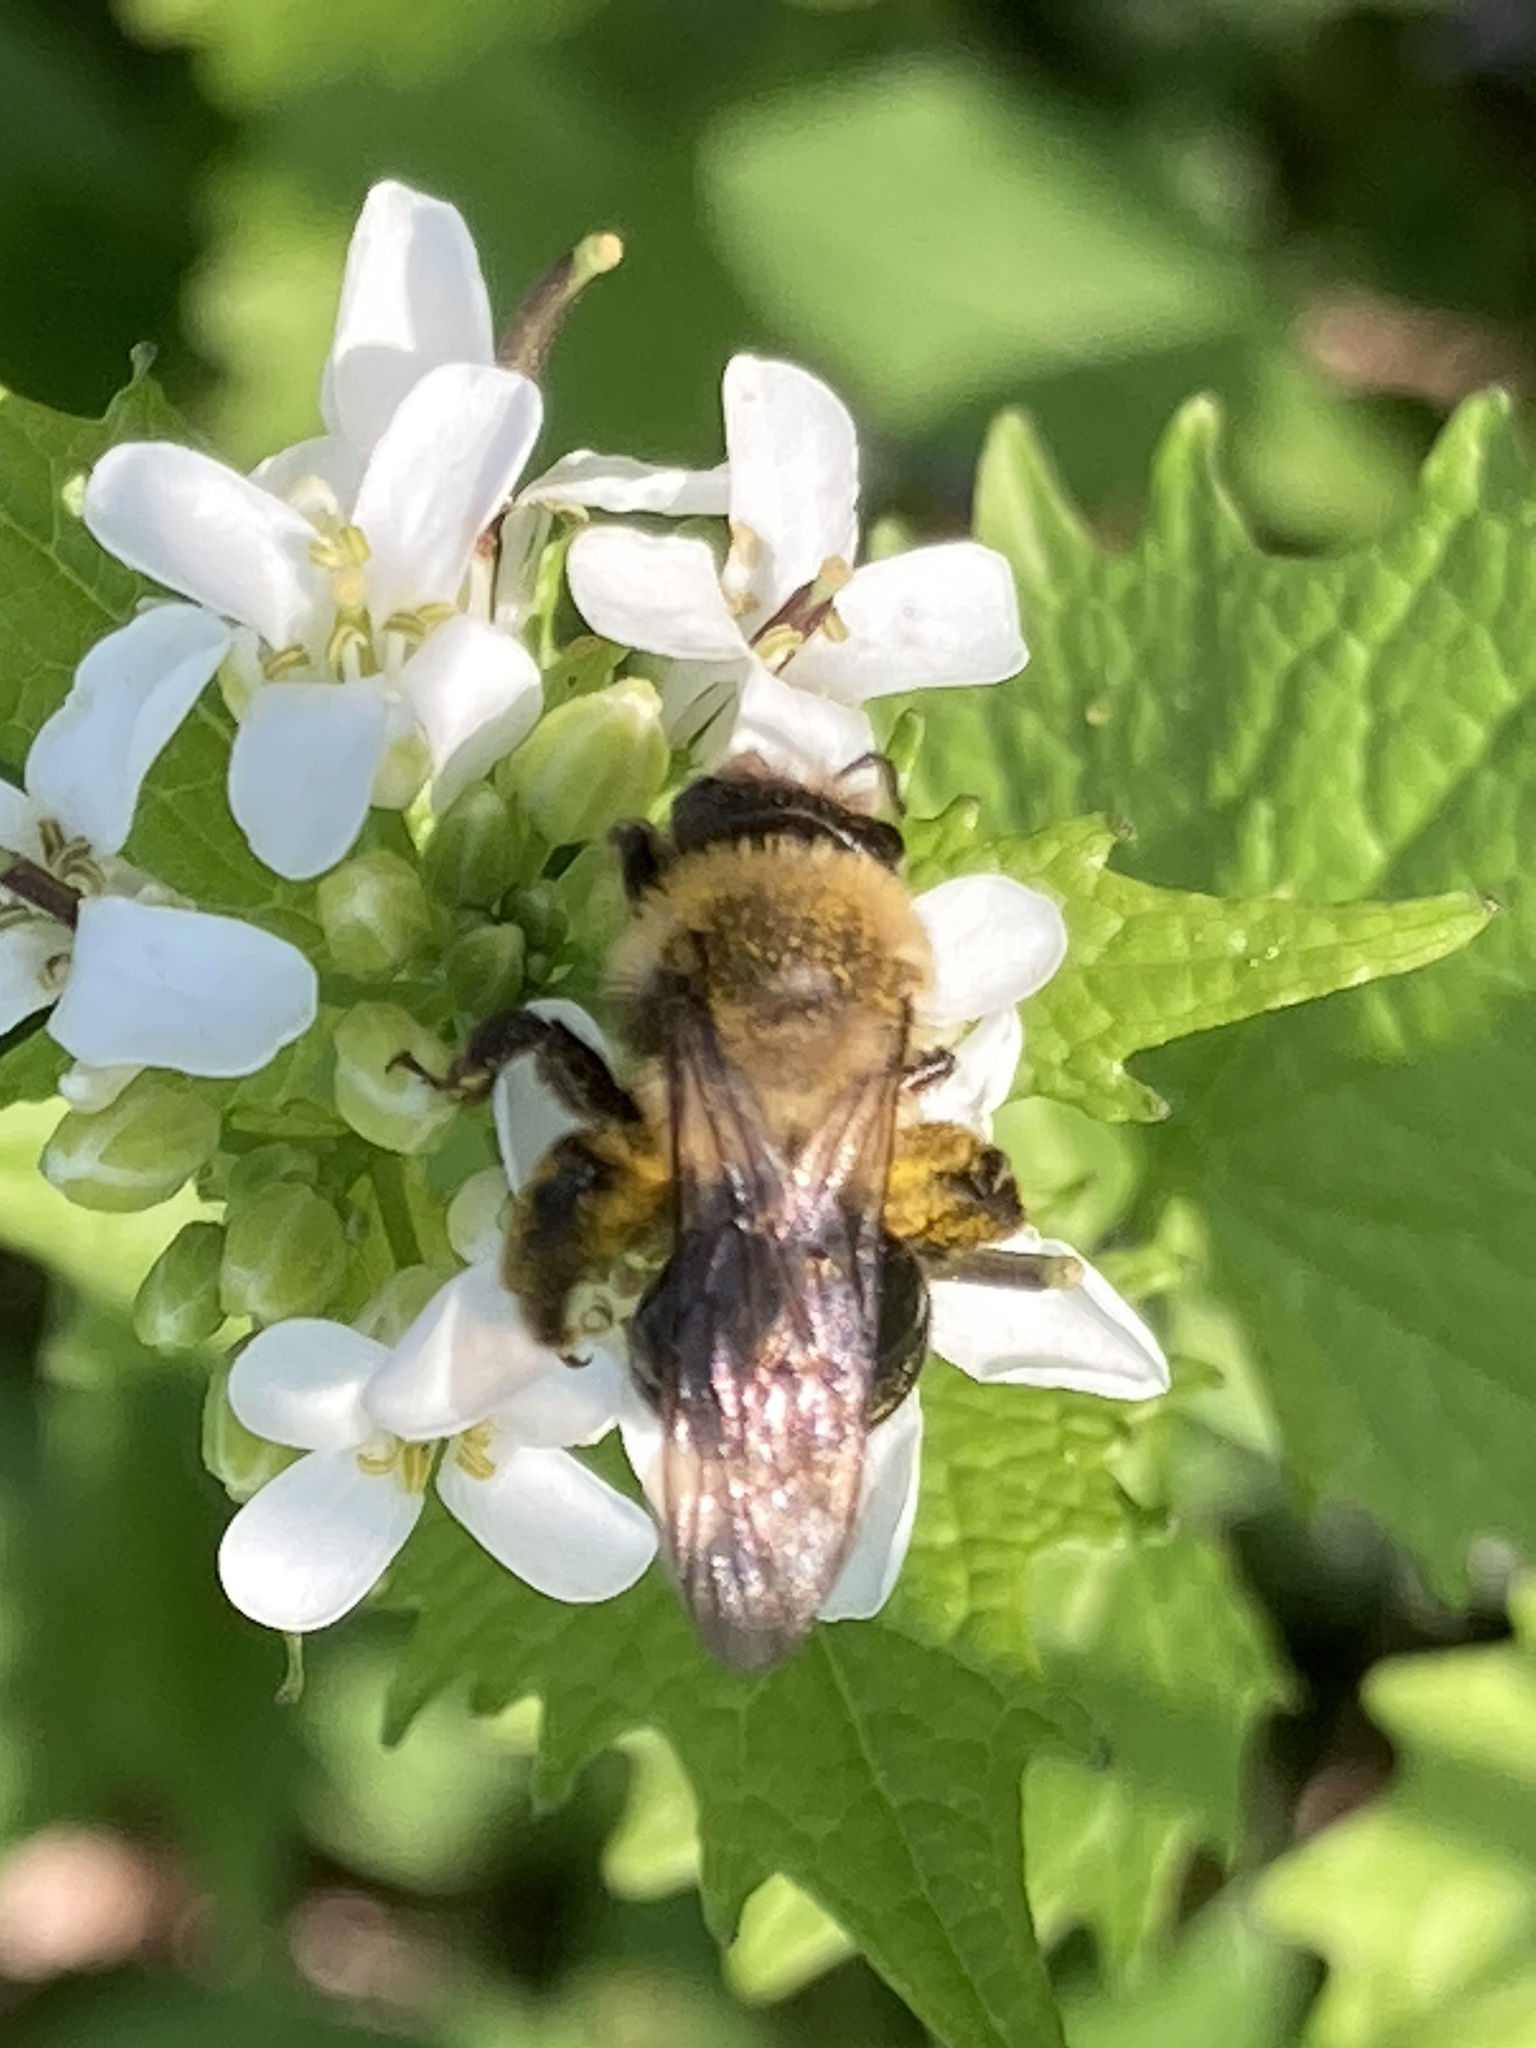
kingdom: Animalia
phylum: Arthropoda
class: Insecta
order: Hymenoptera
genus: Melandrena
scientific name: Melandrena
